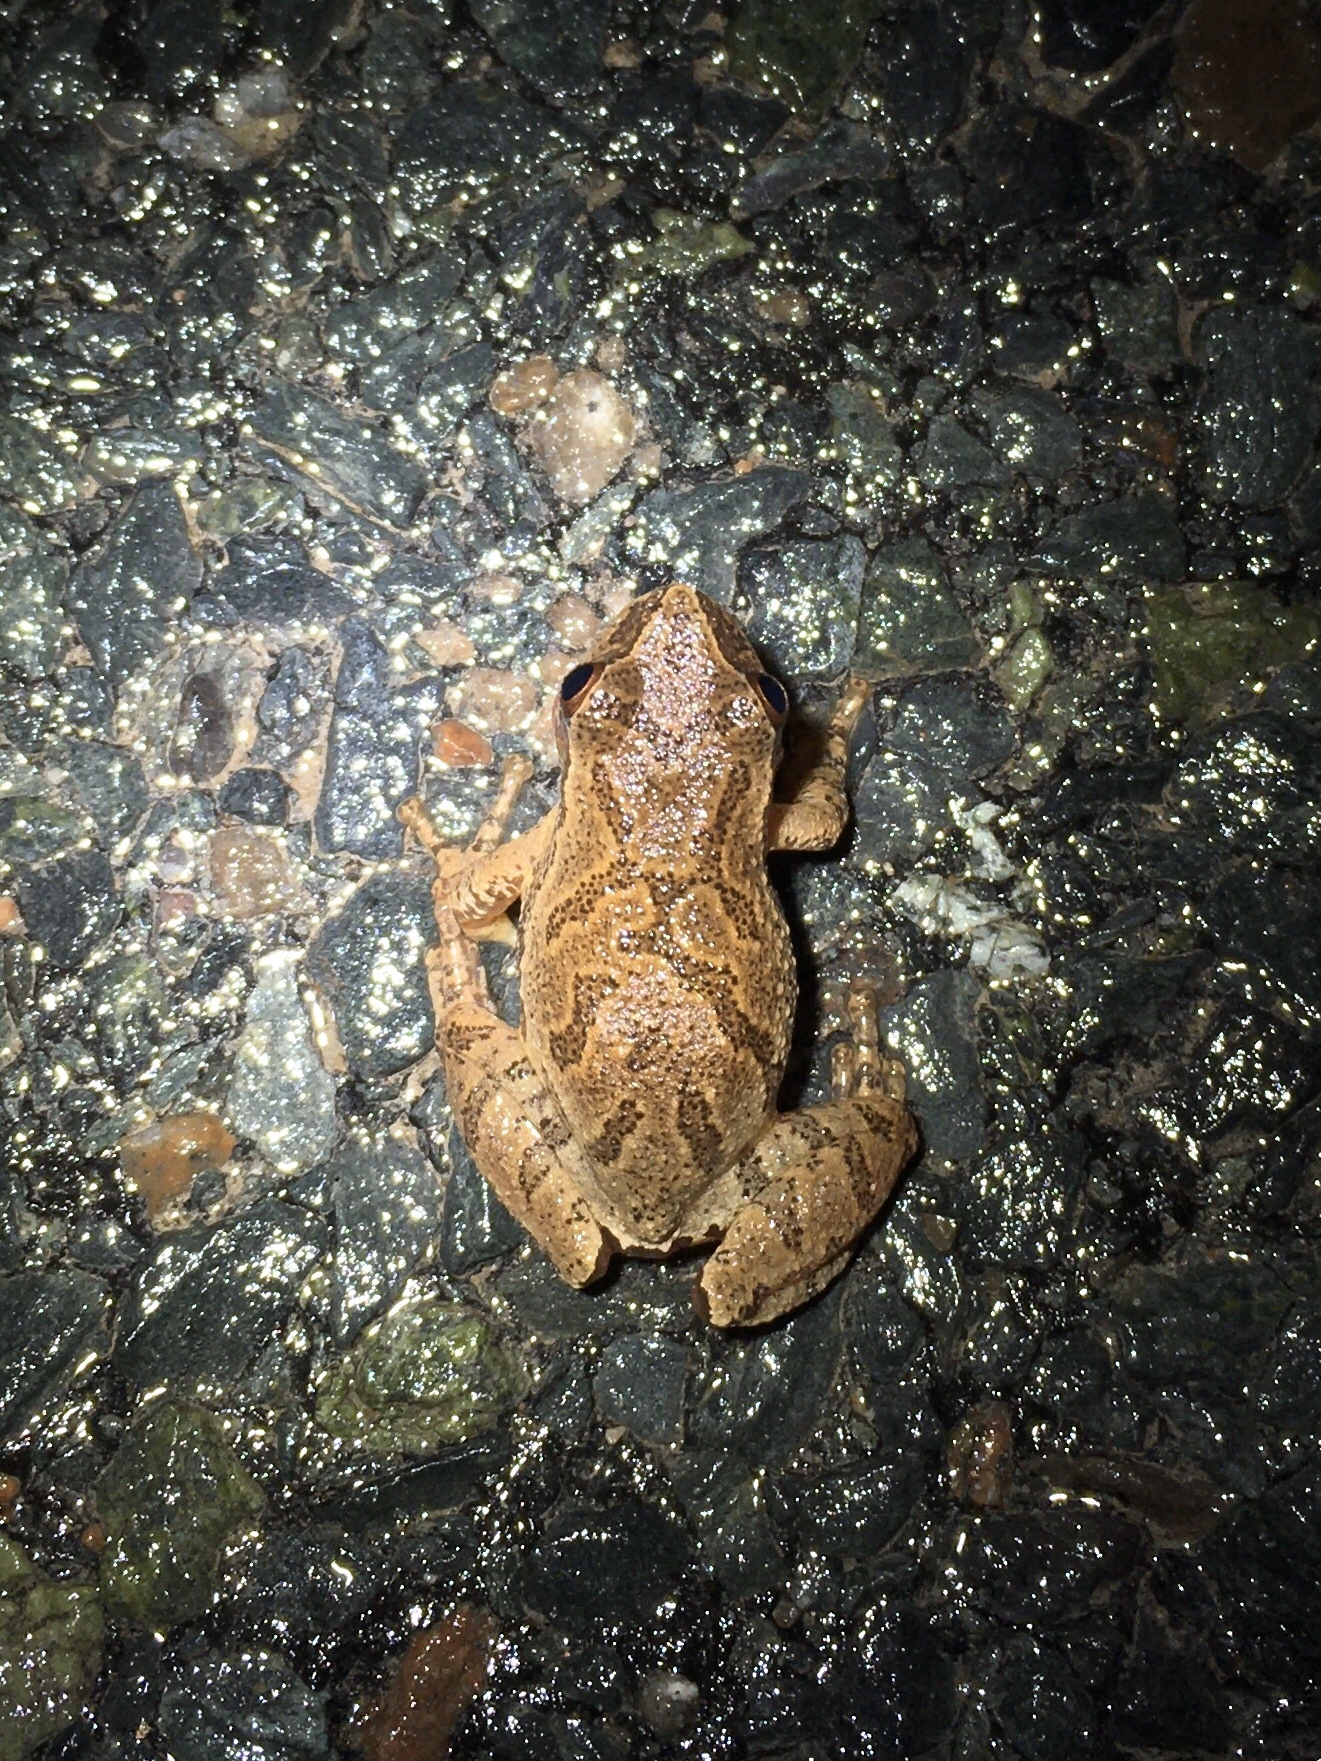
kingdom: Animalia
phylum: Chordata
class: Amphibia
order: Anura
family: Hylidae
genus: Pseudacris
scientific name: Pseudacris crucifer
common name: Spring peeper
